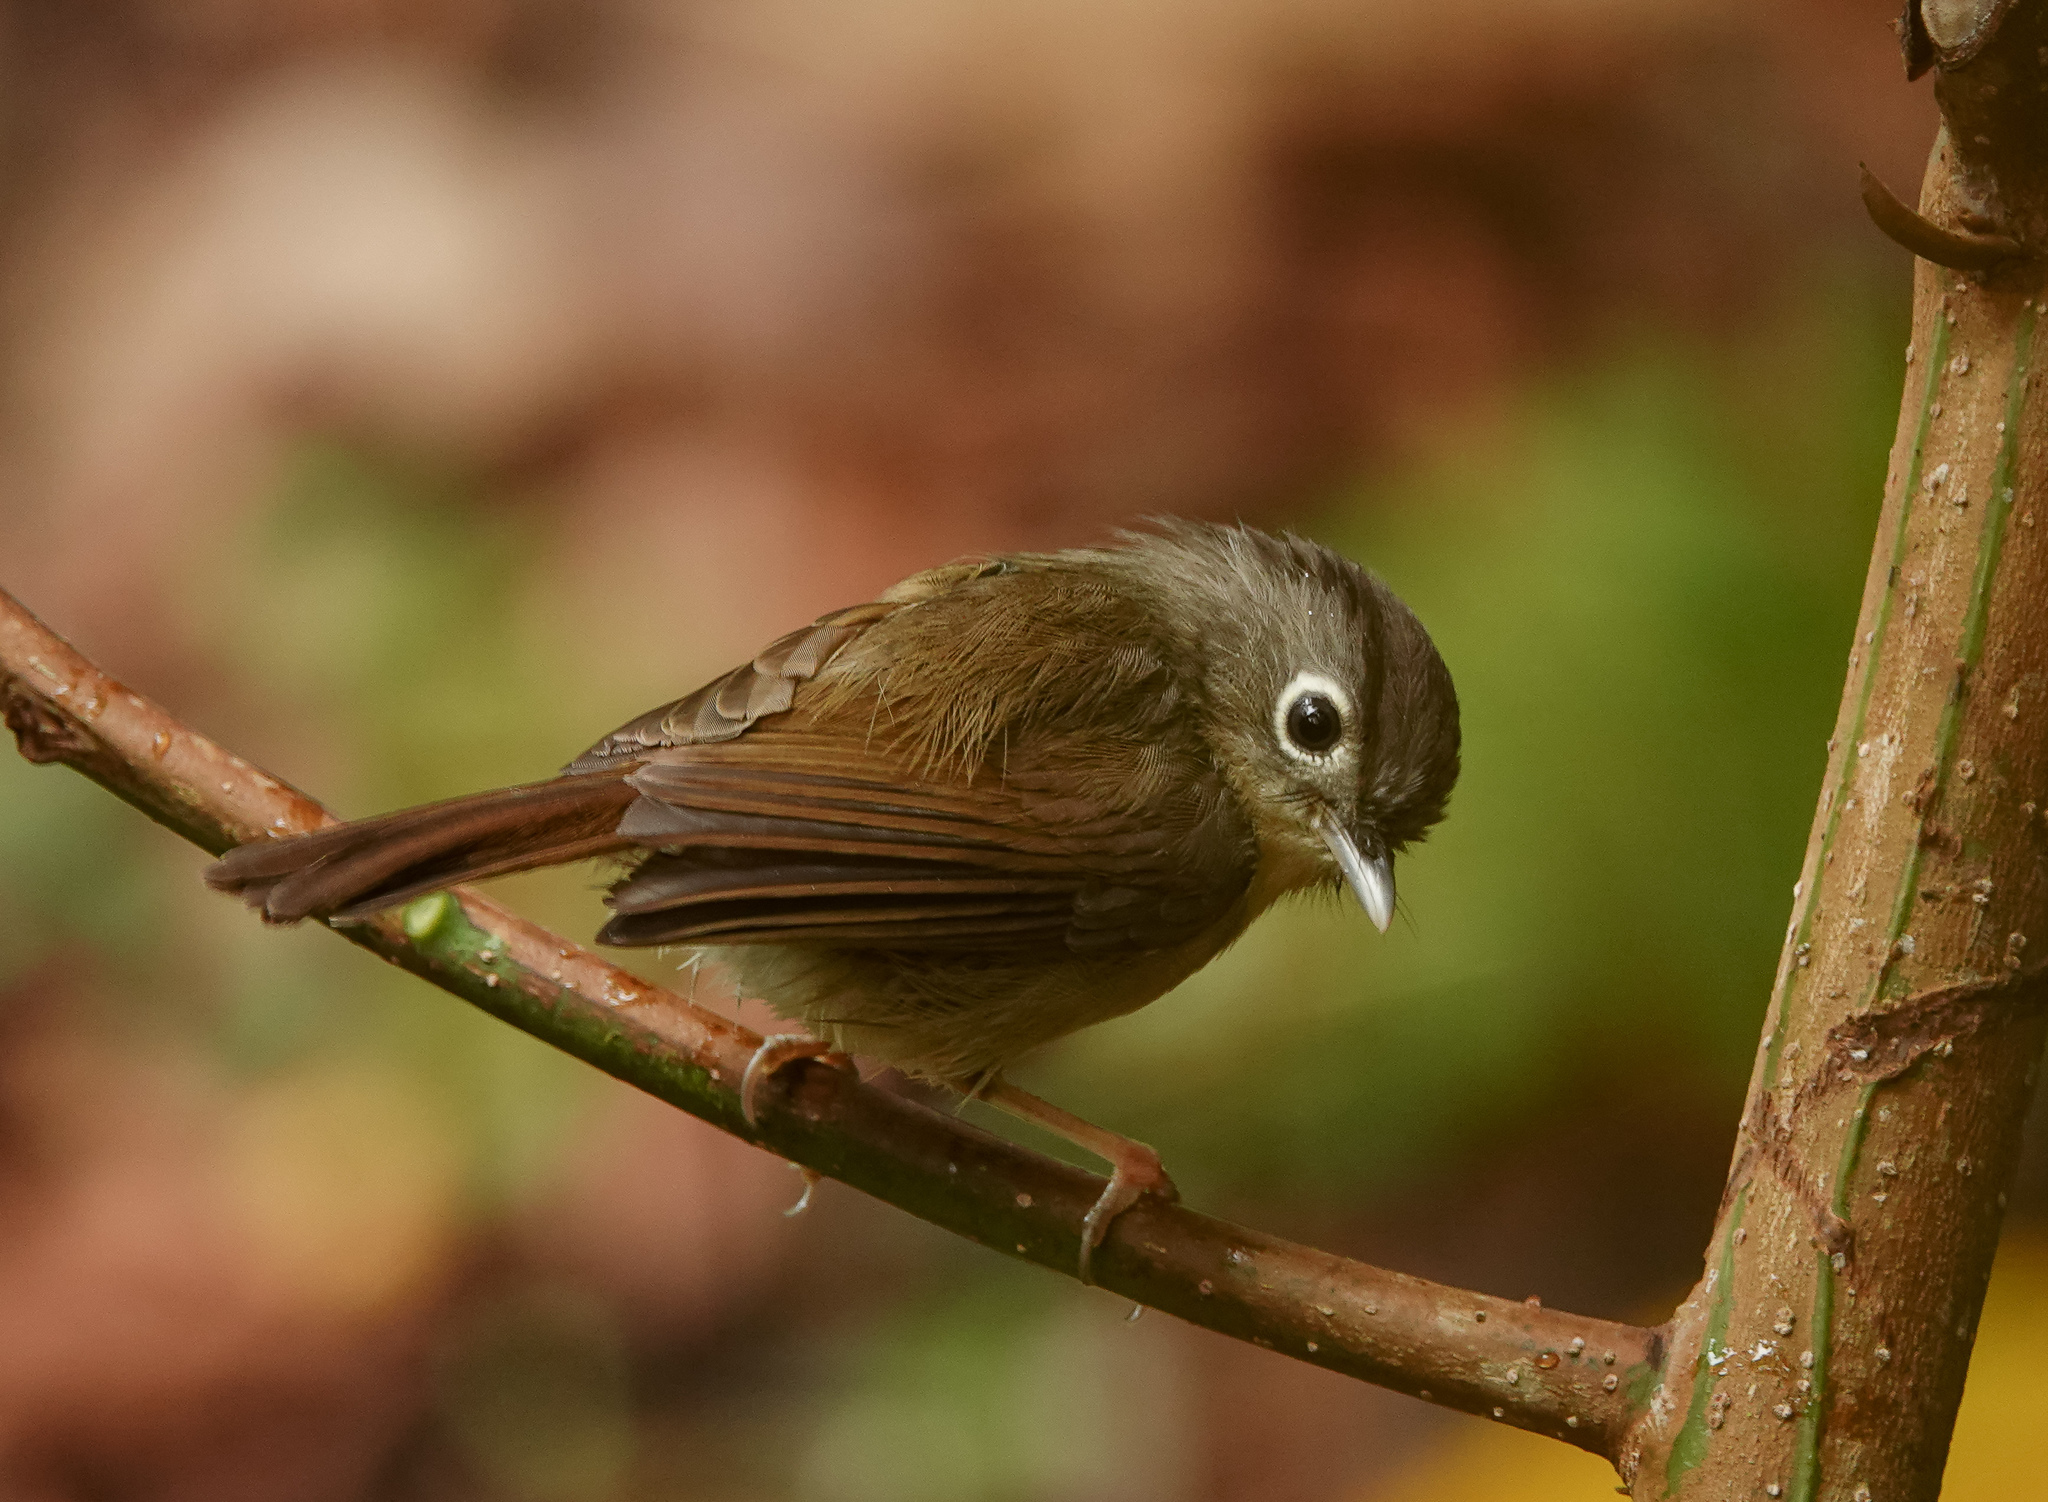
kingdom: Animalia
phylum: Chordata
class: Aves
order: Passeriformes
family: Pellorneidae
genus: Alcippe
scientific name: Alcippe nipalensis
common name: Nepal fulvetta
